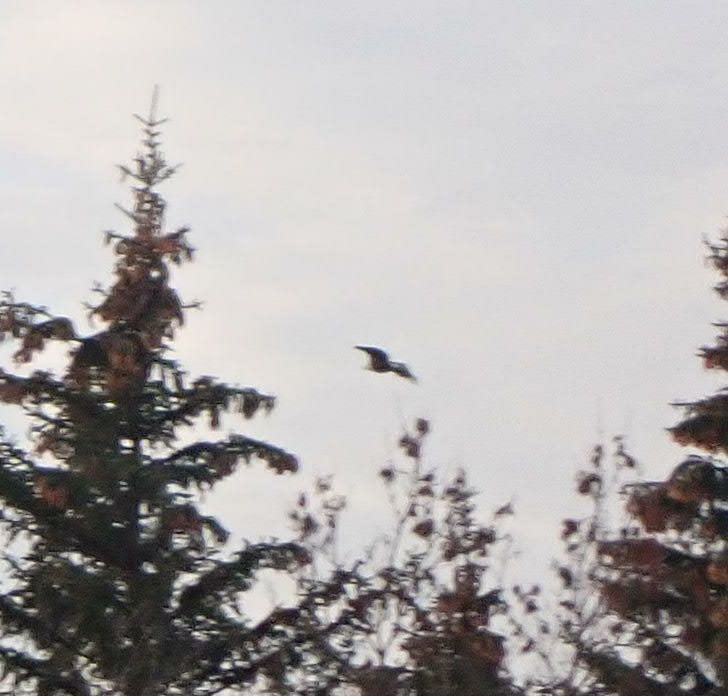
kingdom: Animalia
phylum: Chordata
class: Aves
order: Accipitriformes
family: Accipitridae
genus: Haliaeetus
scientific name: Haliaeetus leucocephalus
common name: Bald eagle
